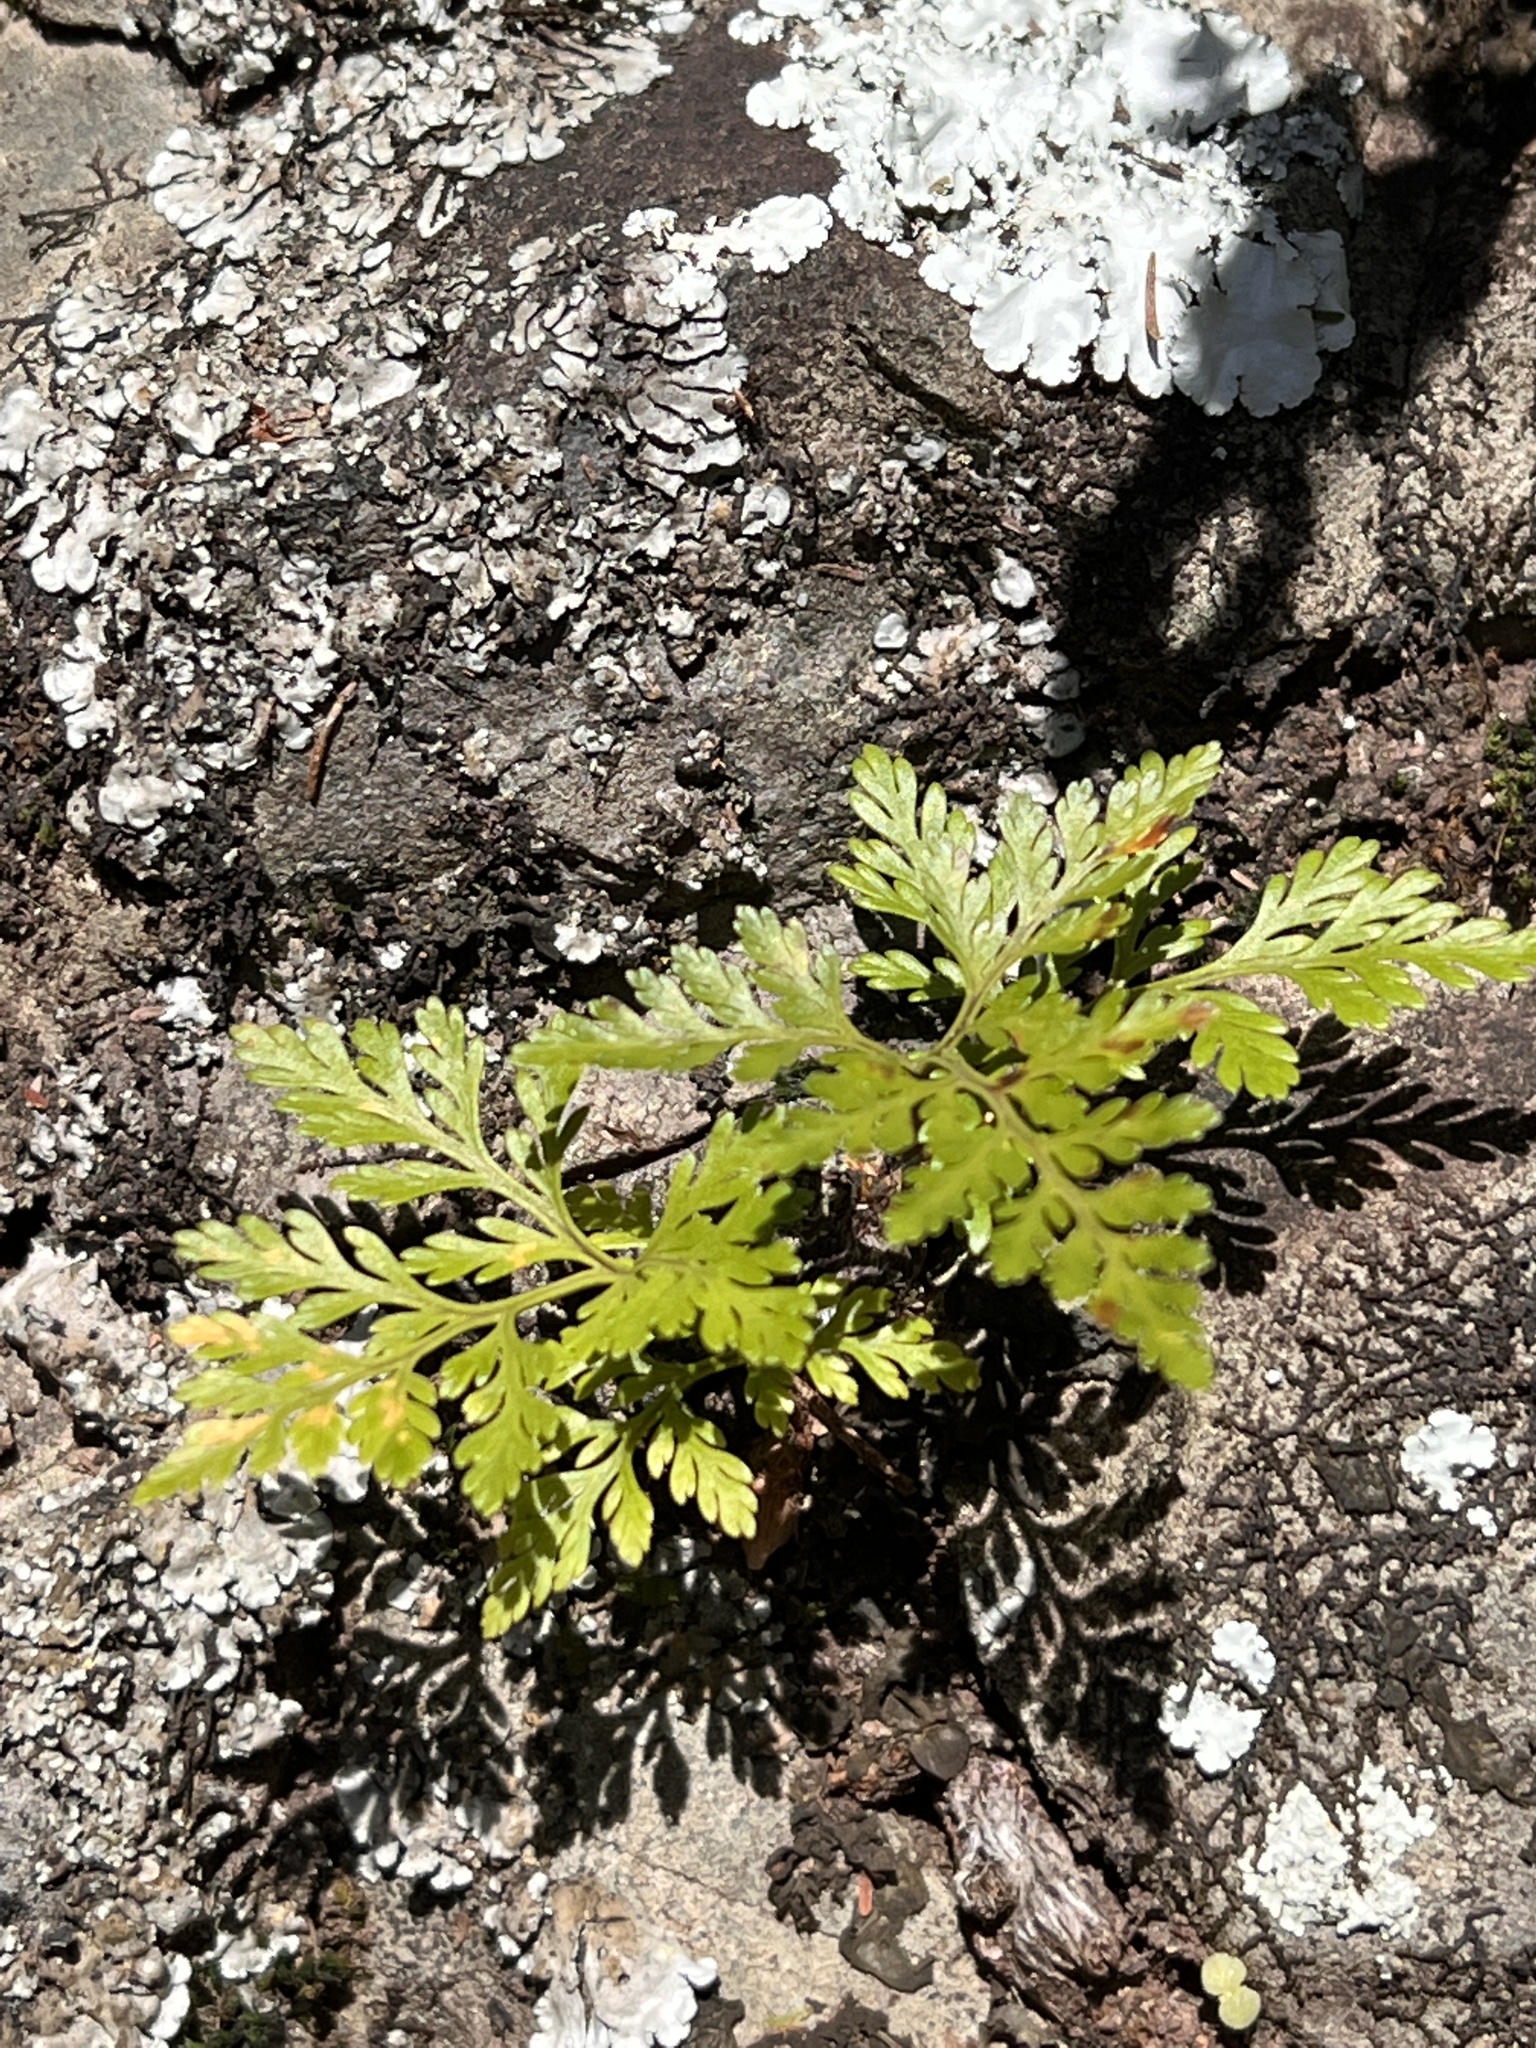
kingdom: Plantae
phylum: Tracheophyta
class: Polypodiopsida
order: Polypodiales
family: Davalliaceae
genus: Davallia
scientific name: Davallia canariensis
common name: Hare's-foot fern
